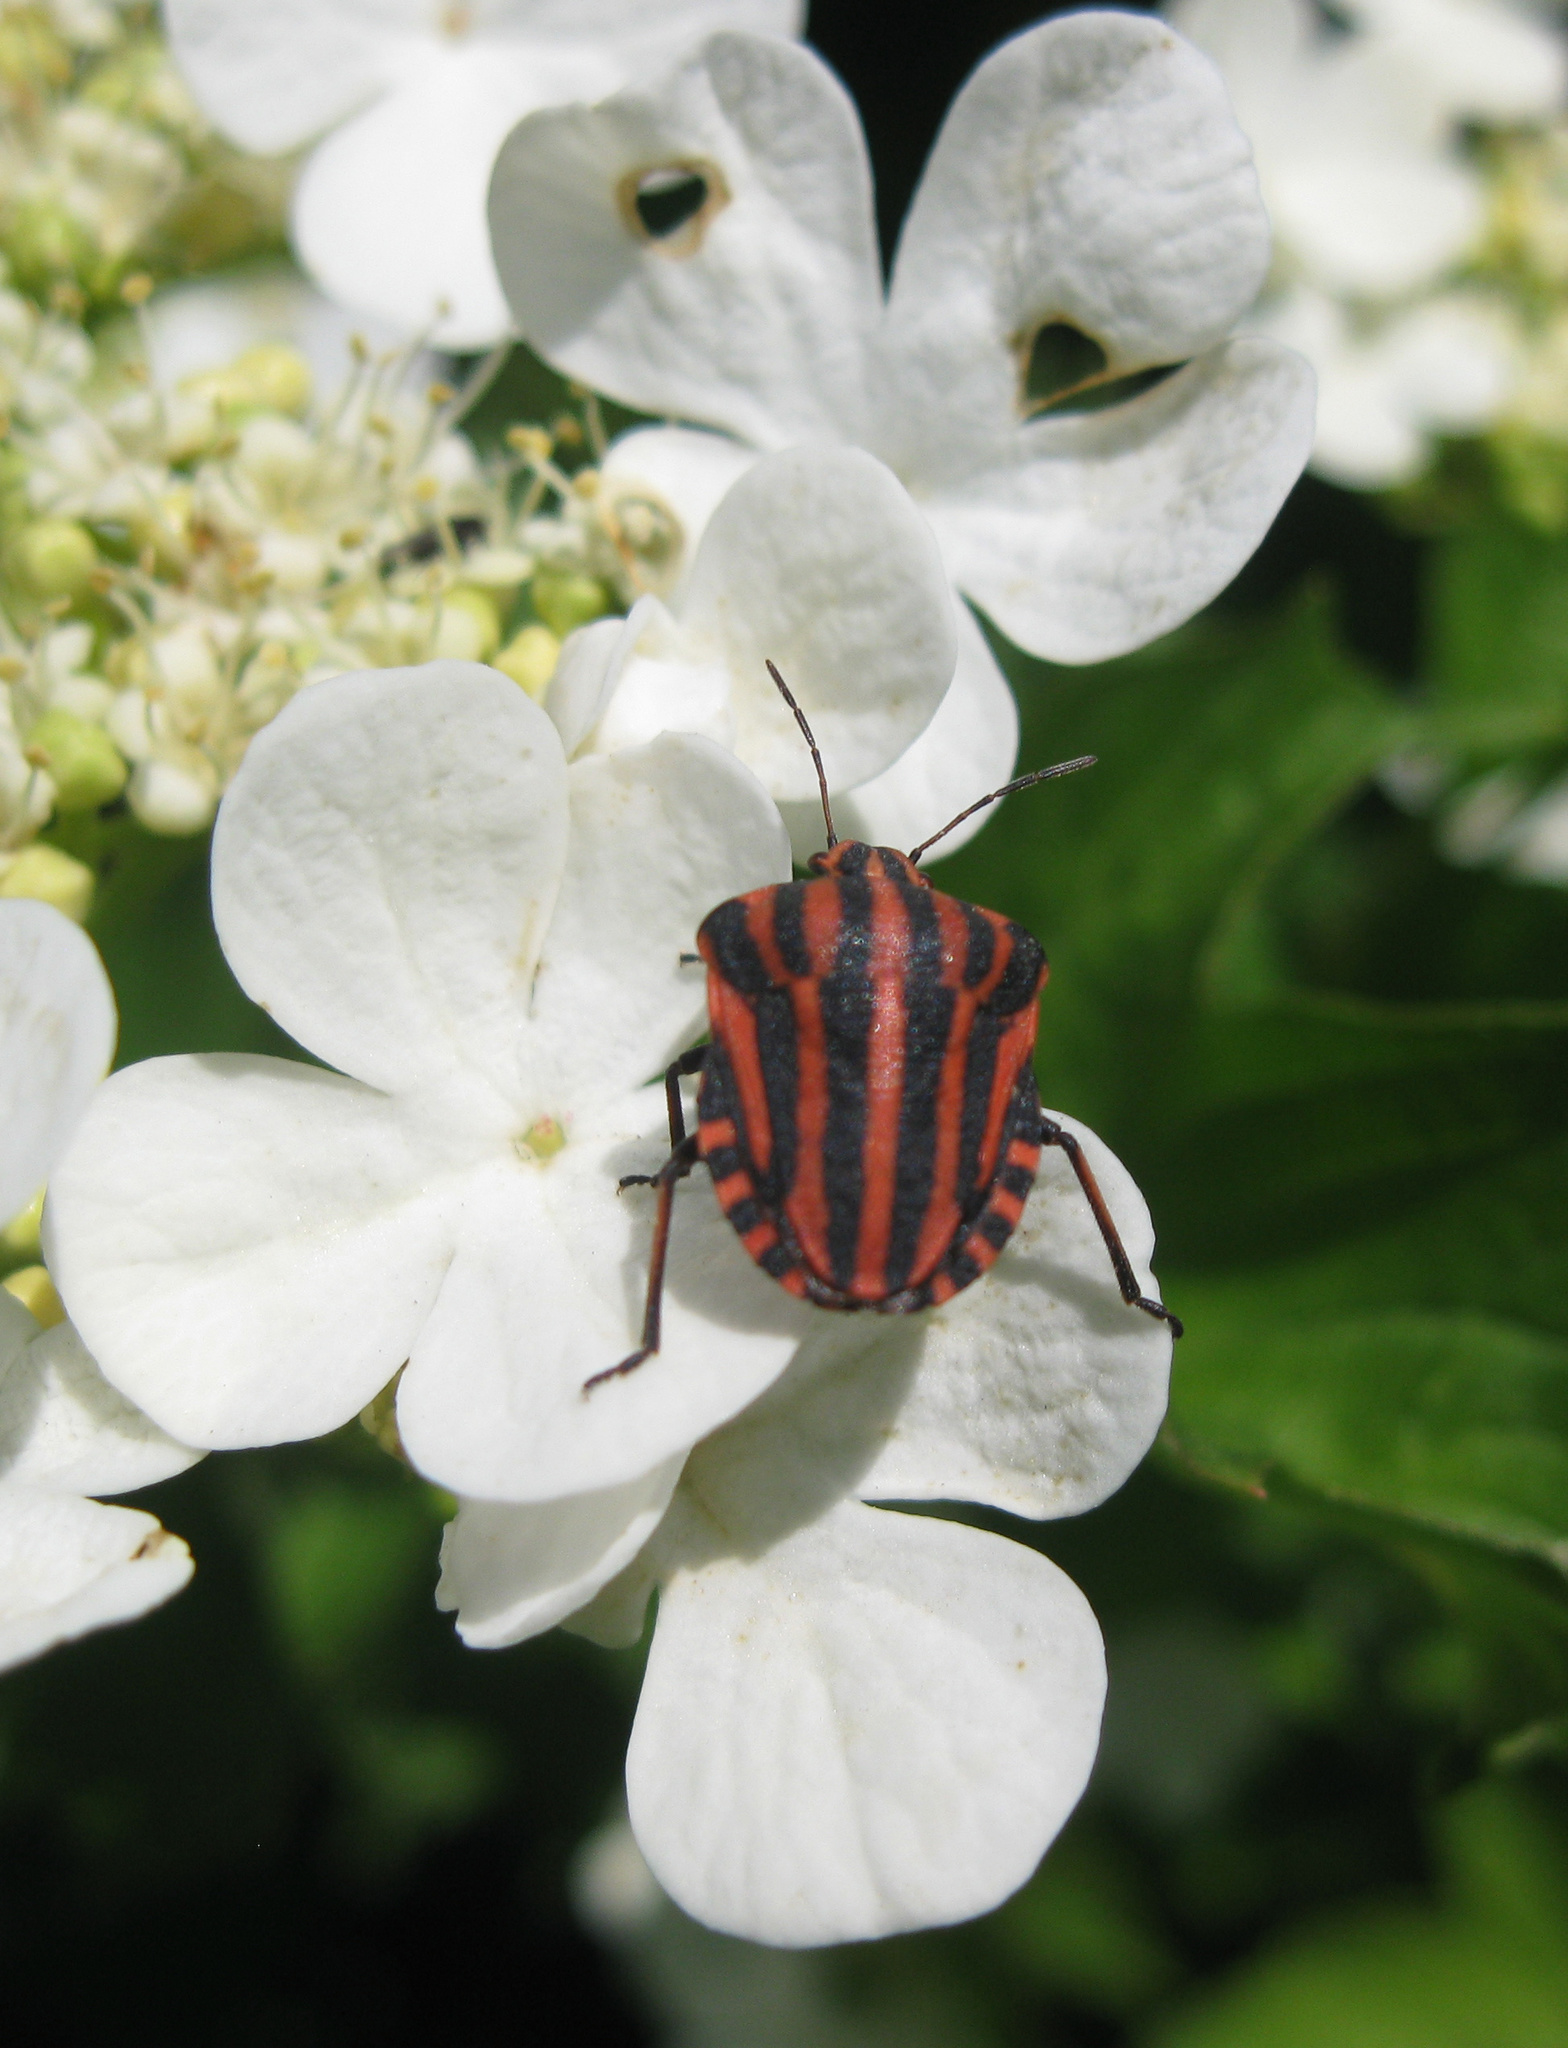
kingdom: Animalia
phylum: Arthropoda
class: Insecta
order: Hemiptera
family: Pentatomidae
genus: Graphosoma
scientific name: Graphosoma italicum
